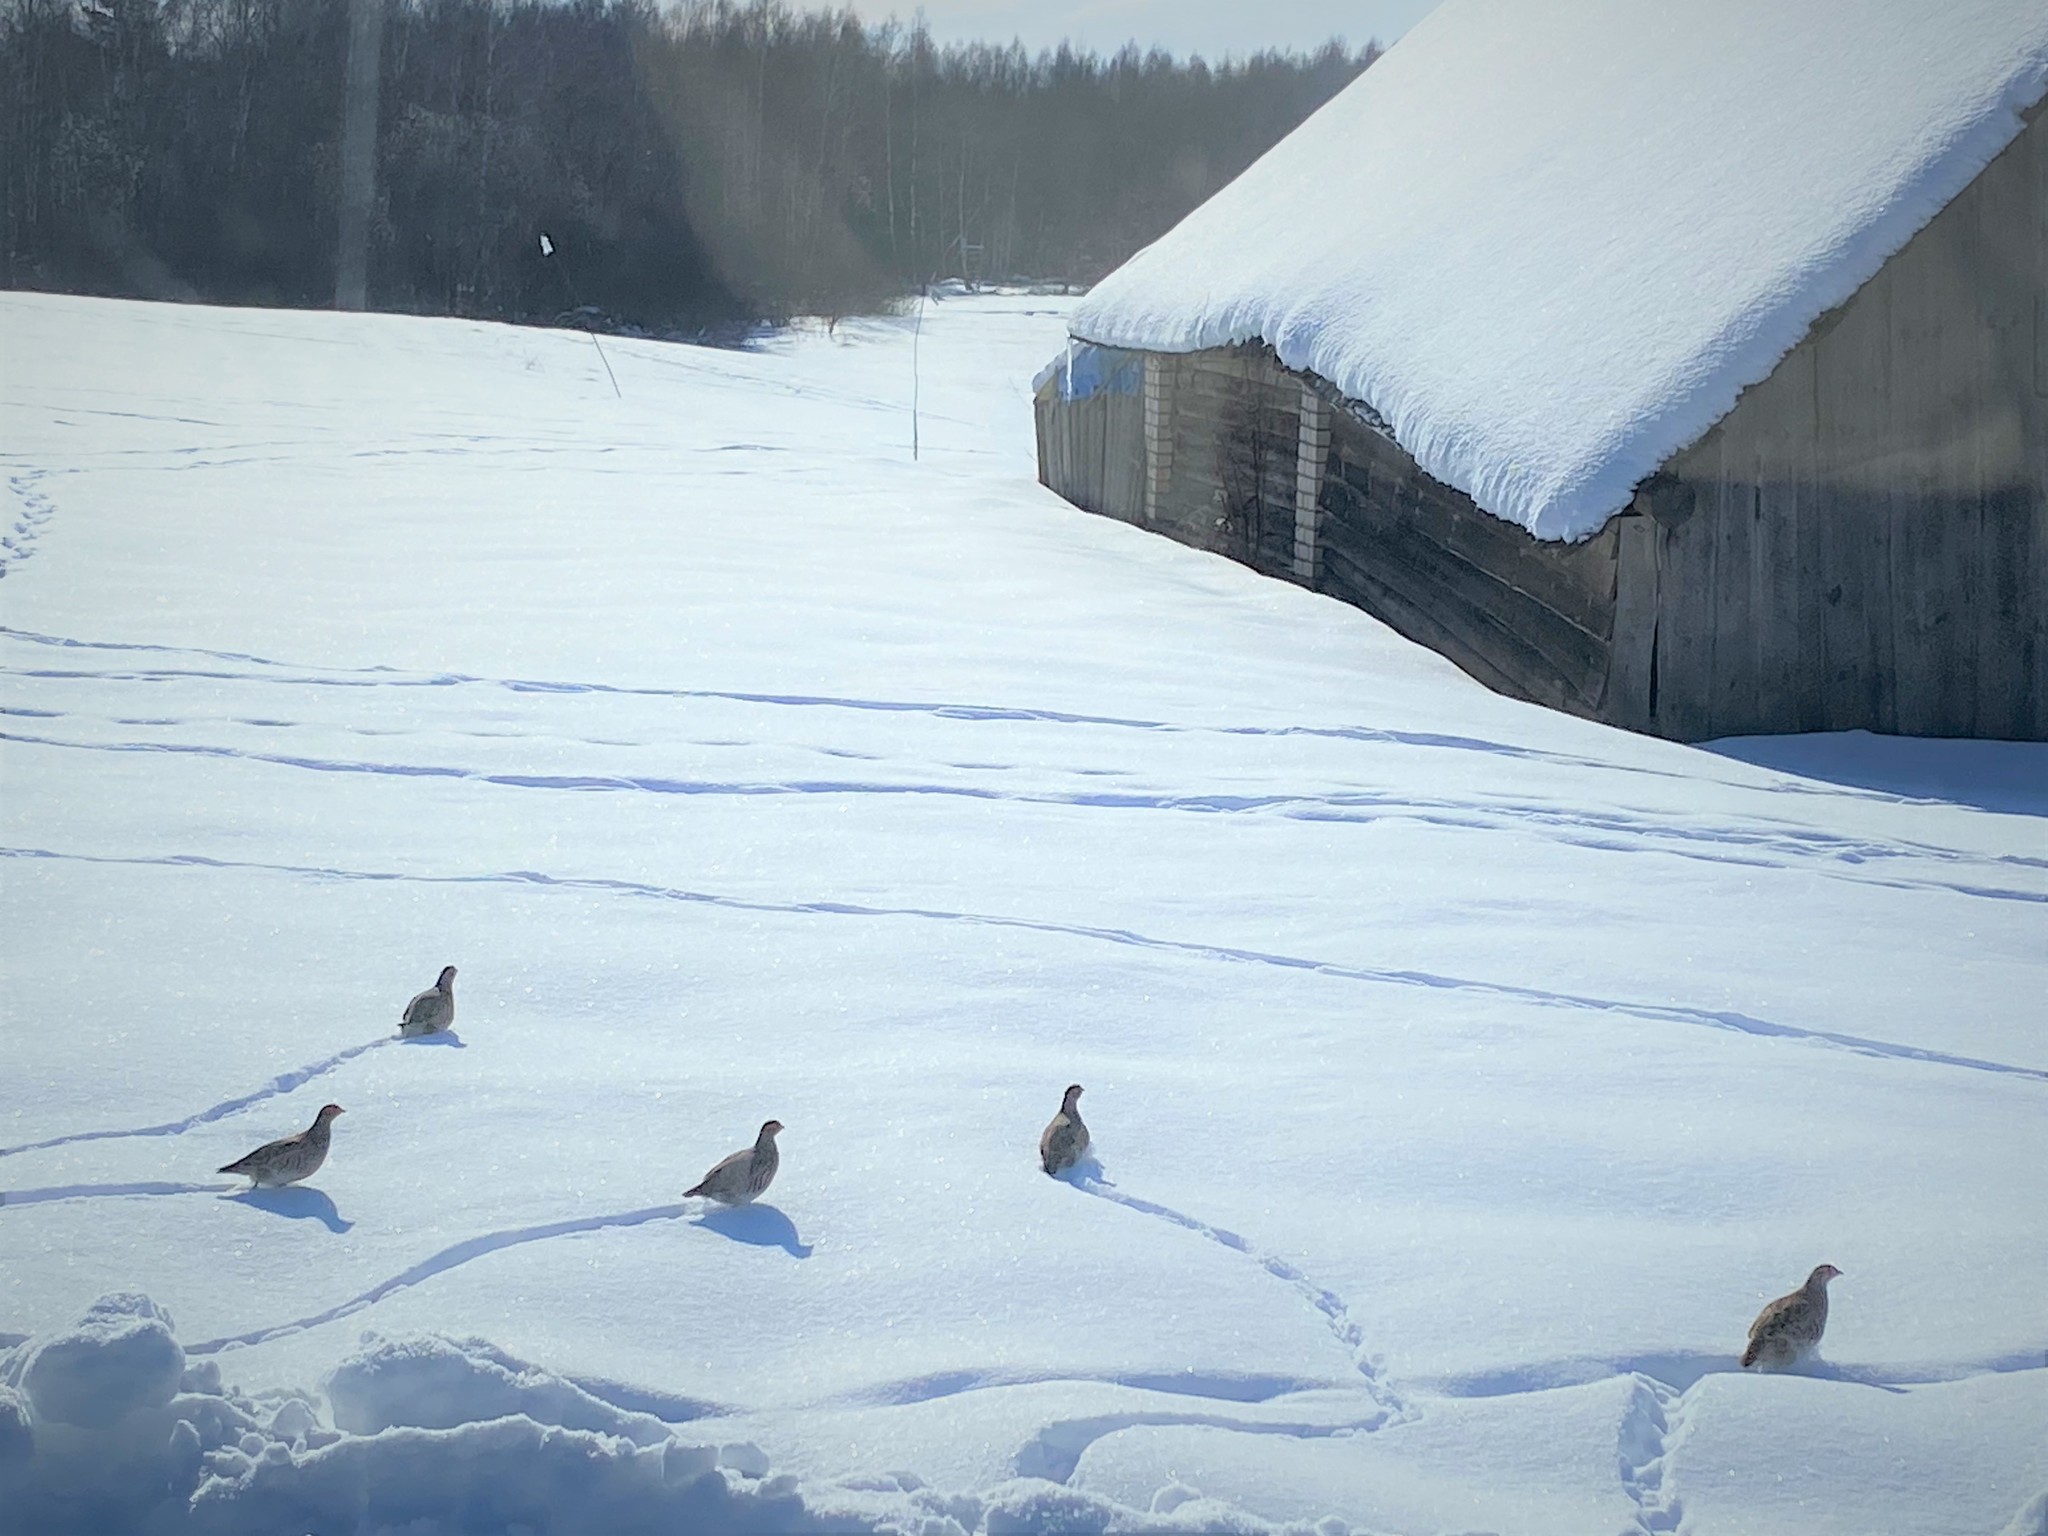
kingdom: Animalia
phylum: Chordata
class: Aves
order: Galliformes
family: Phasianidae
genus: Perdix
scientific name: Perdix perdix
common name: Grey partridge
